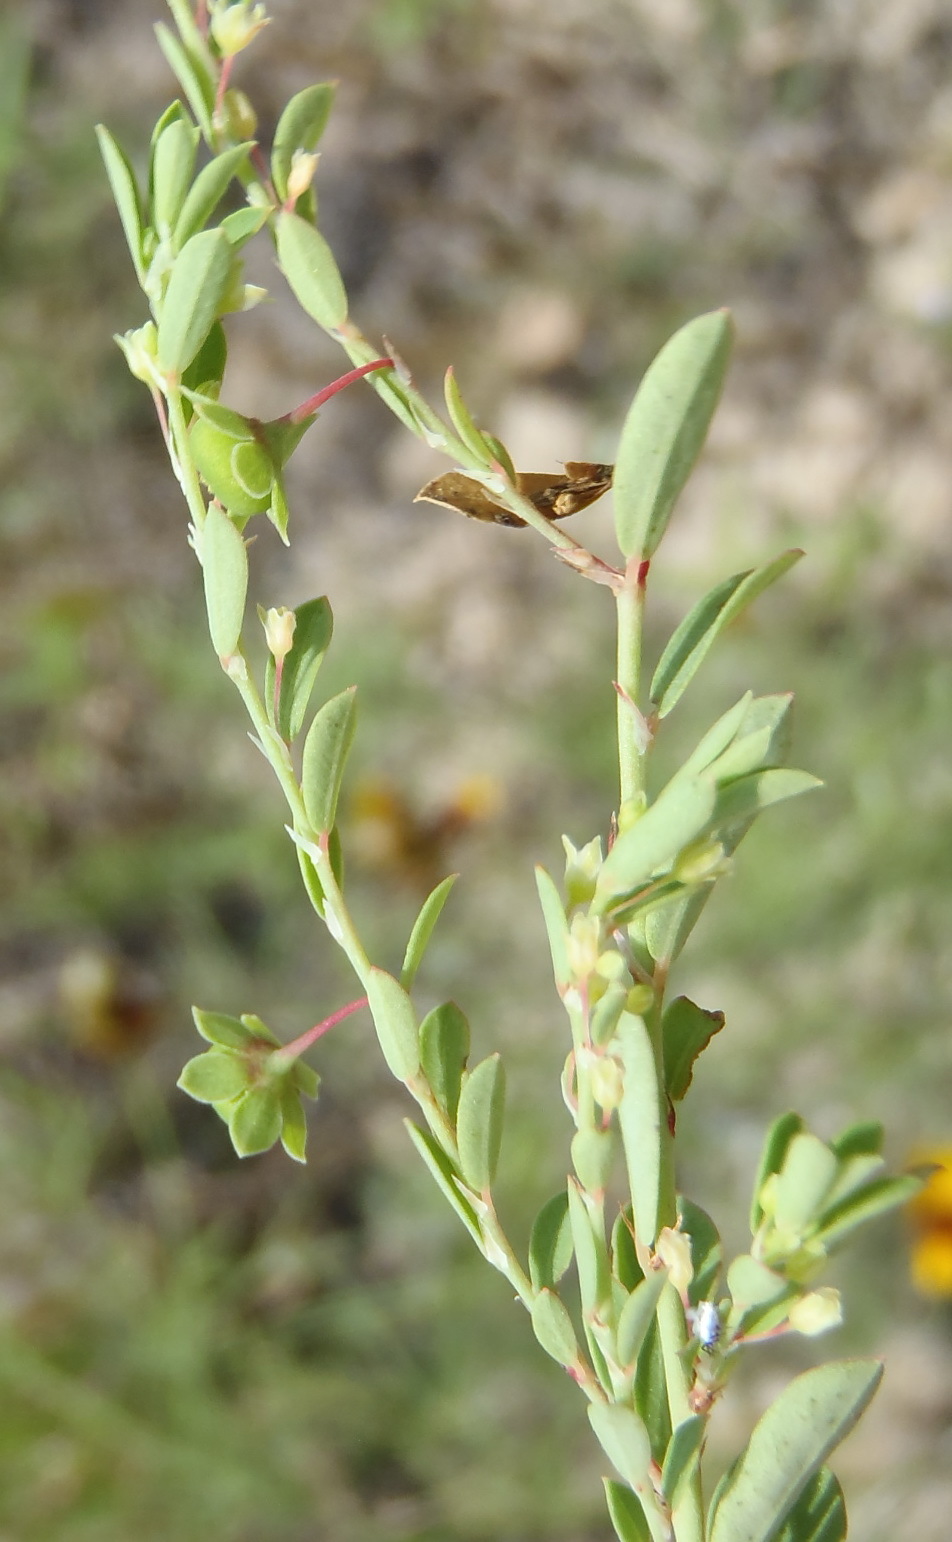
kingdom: Plantae
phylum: Tracheophyta
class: Magnoliopsida
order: Malpighiales
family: Phyllanthaceae
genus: Phyllanthus
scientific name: Phyllanthus polygonoides
